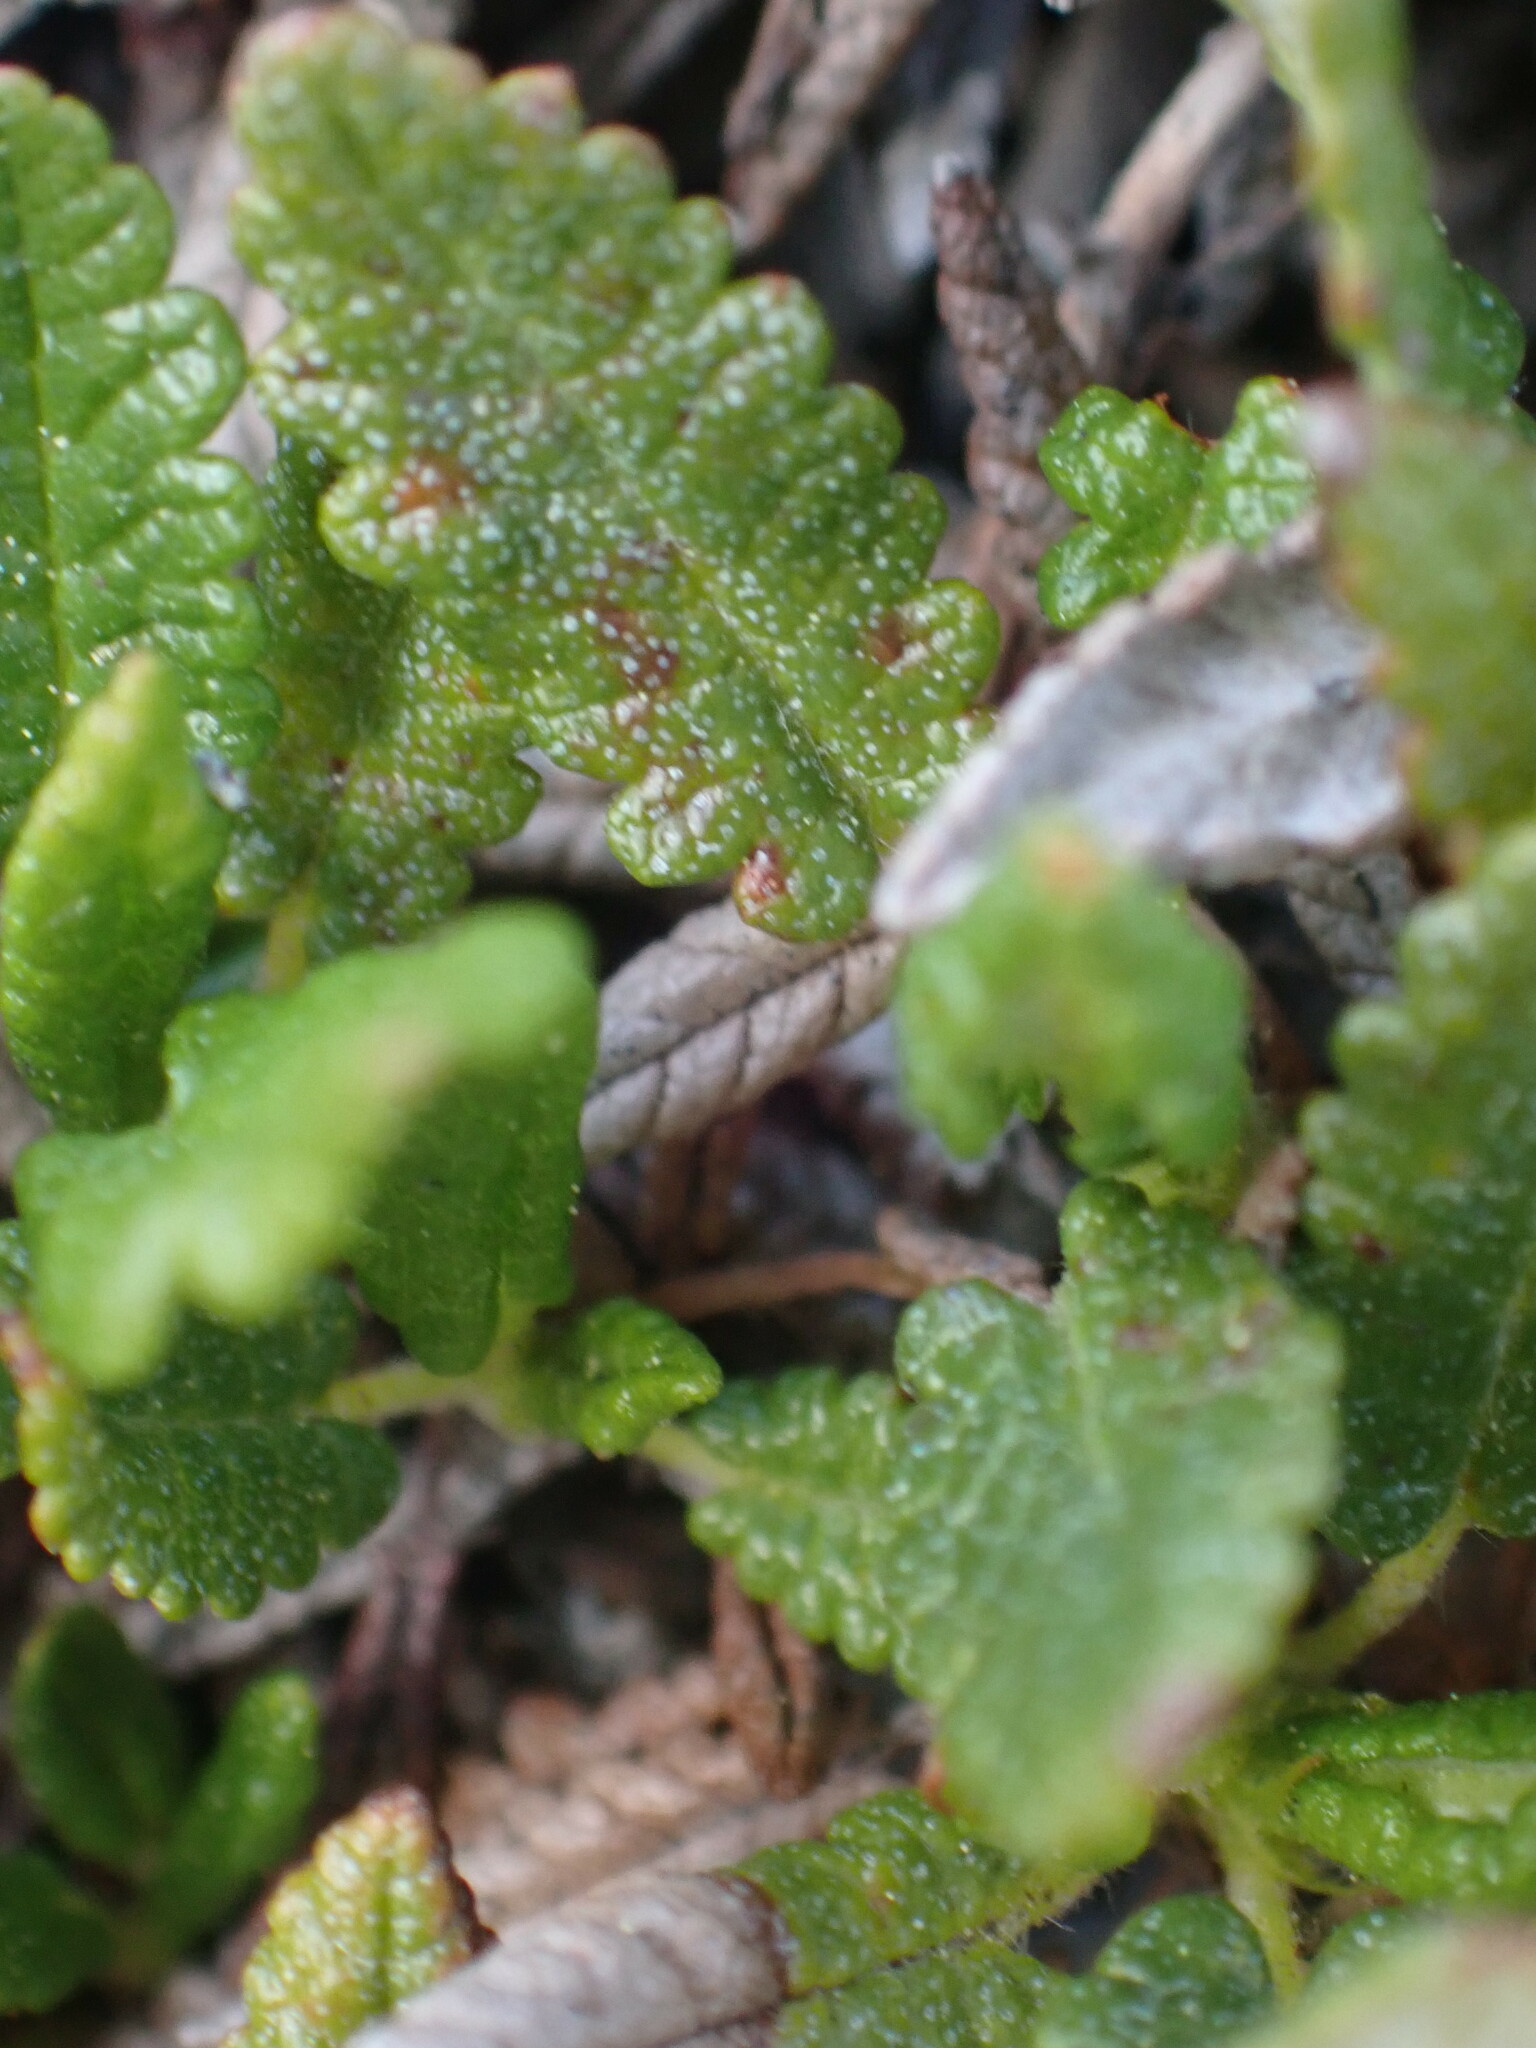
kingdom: Plantae
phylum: Tracheophyta
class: Magnoliopsida
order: Rosales
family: Rosaceae
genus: Dryas
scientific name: Dryas octopetala
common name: Eight-petal mountain-avens
